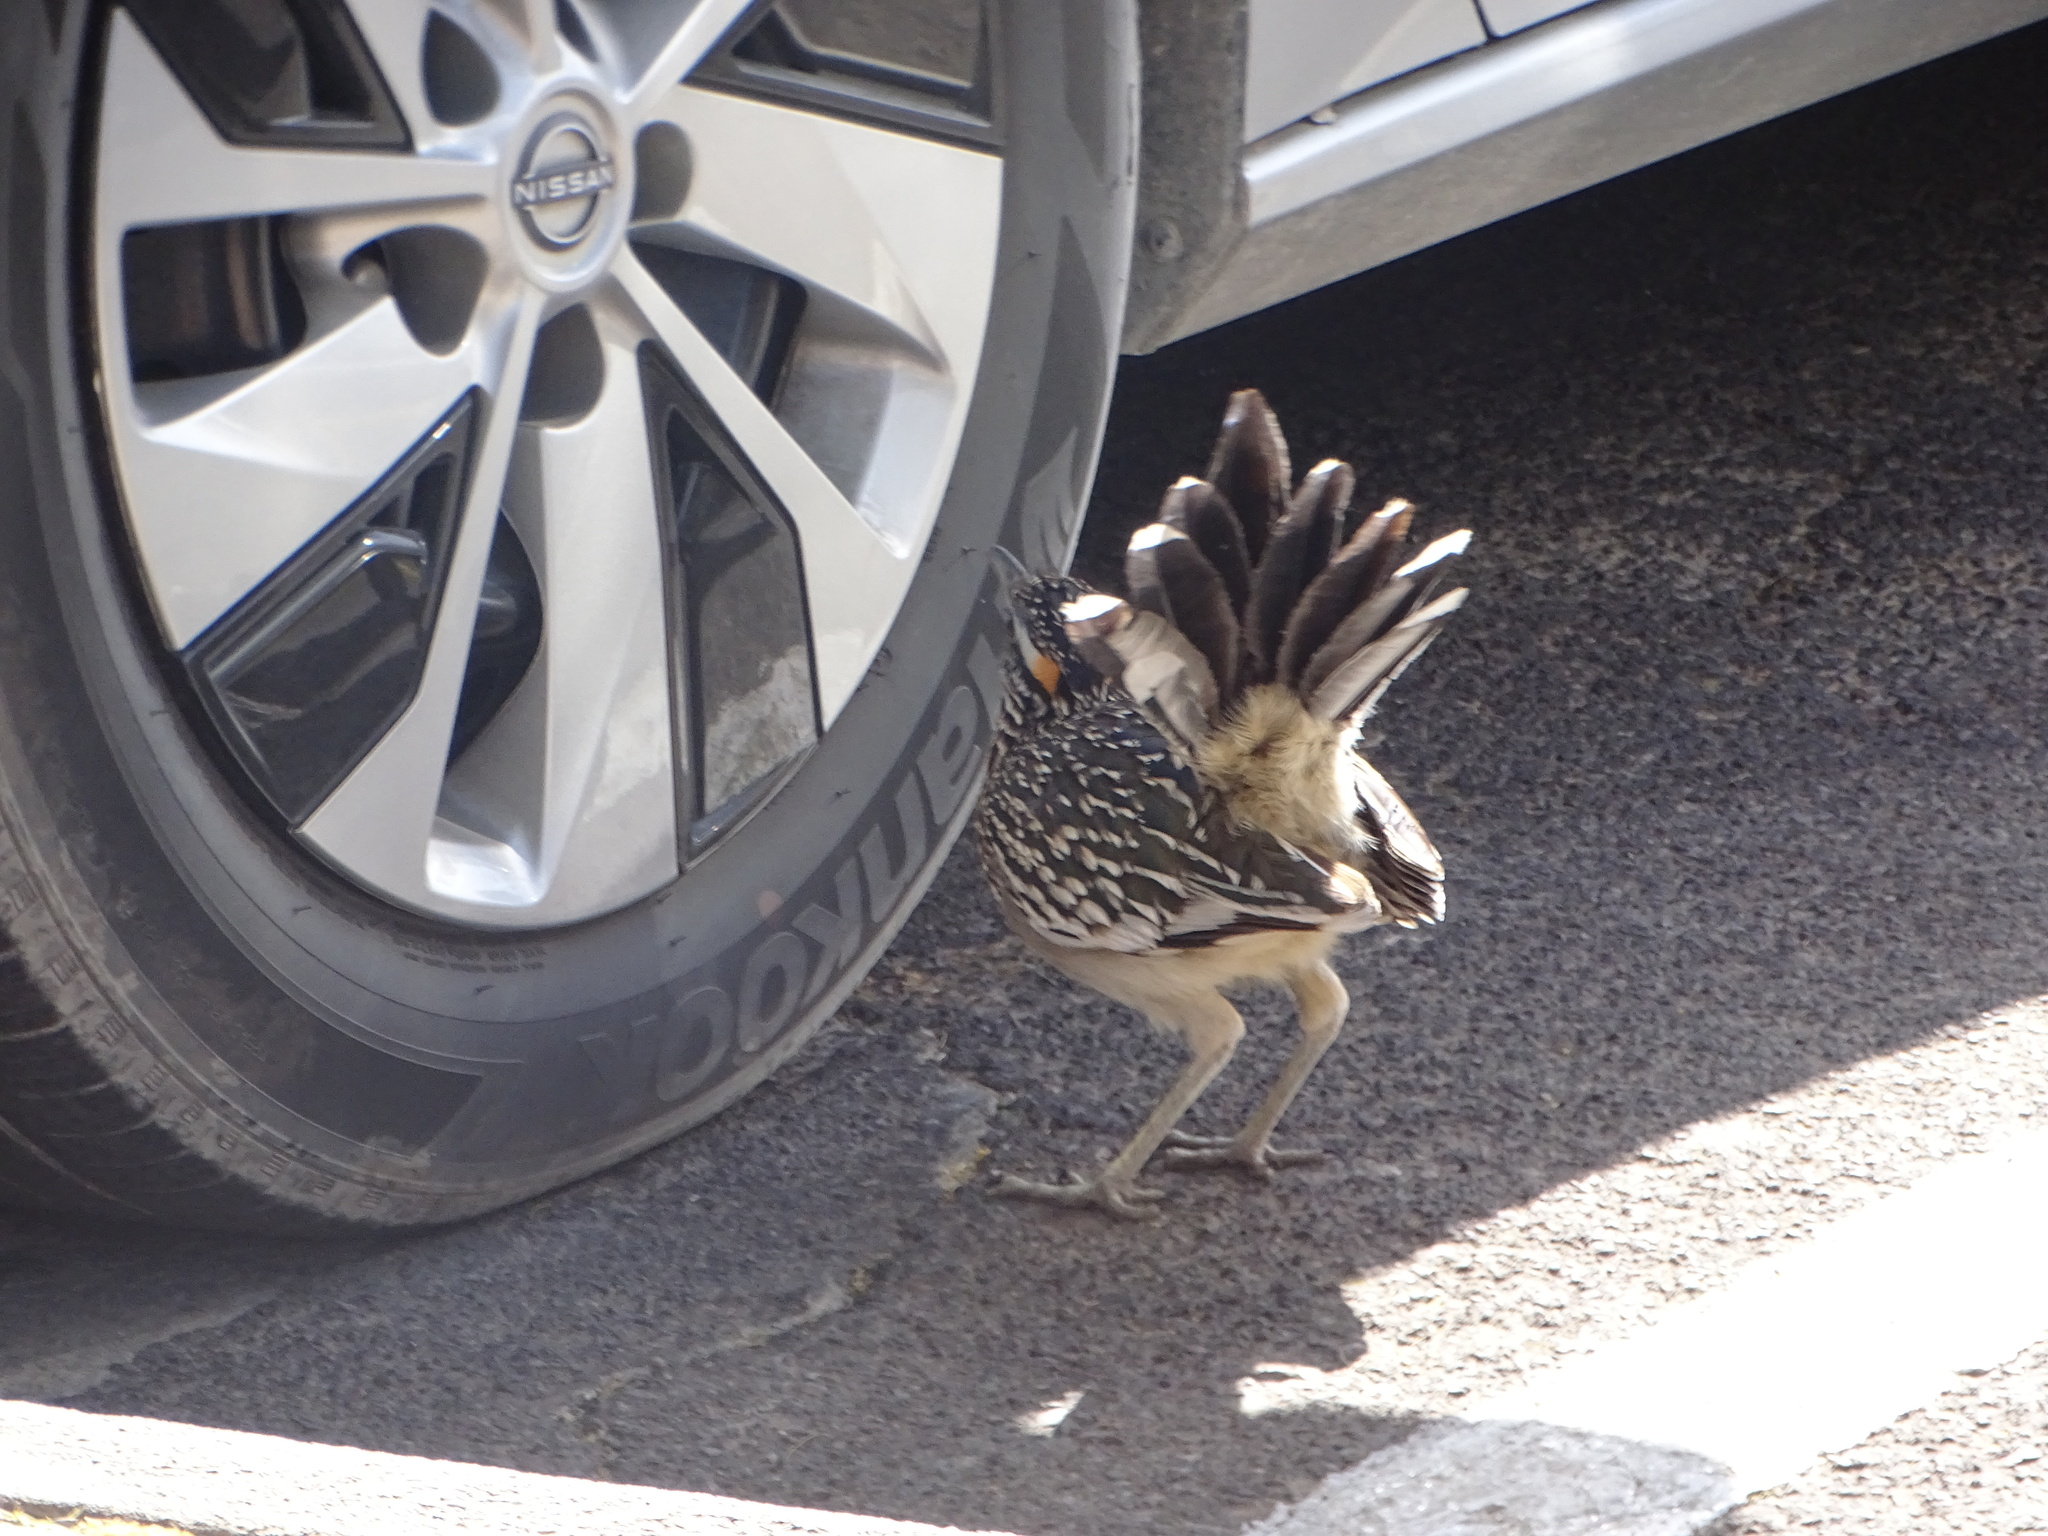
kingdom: Animalia
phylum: Chordata
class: Aves
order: Cuculiformes
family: Cuculidae
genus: Geococcyx
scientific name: Geococcyx californianus
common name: Greater roadrunner
